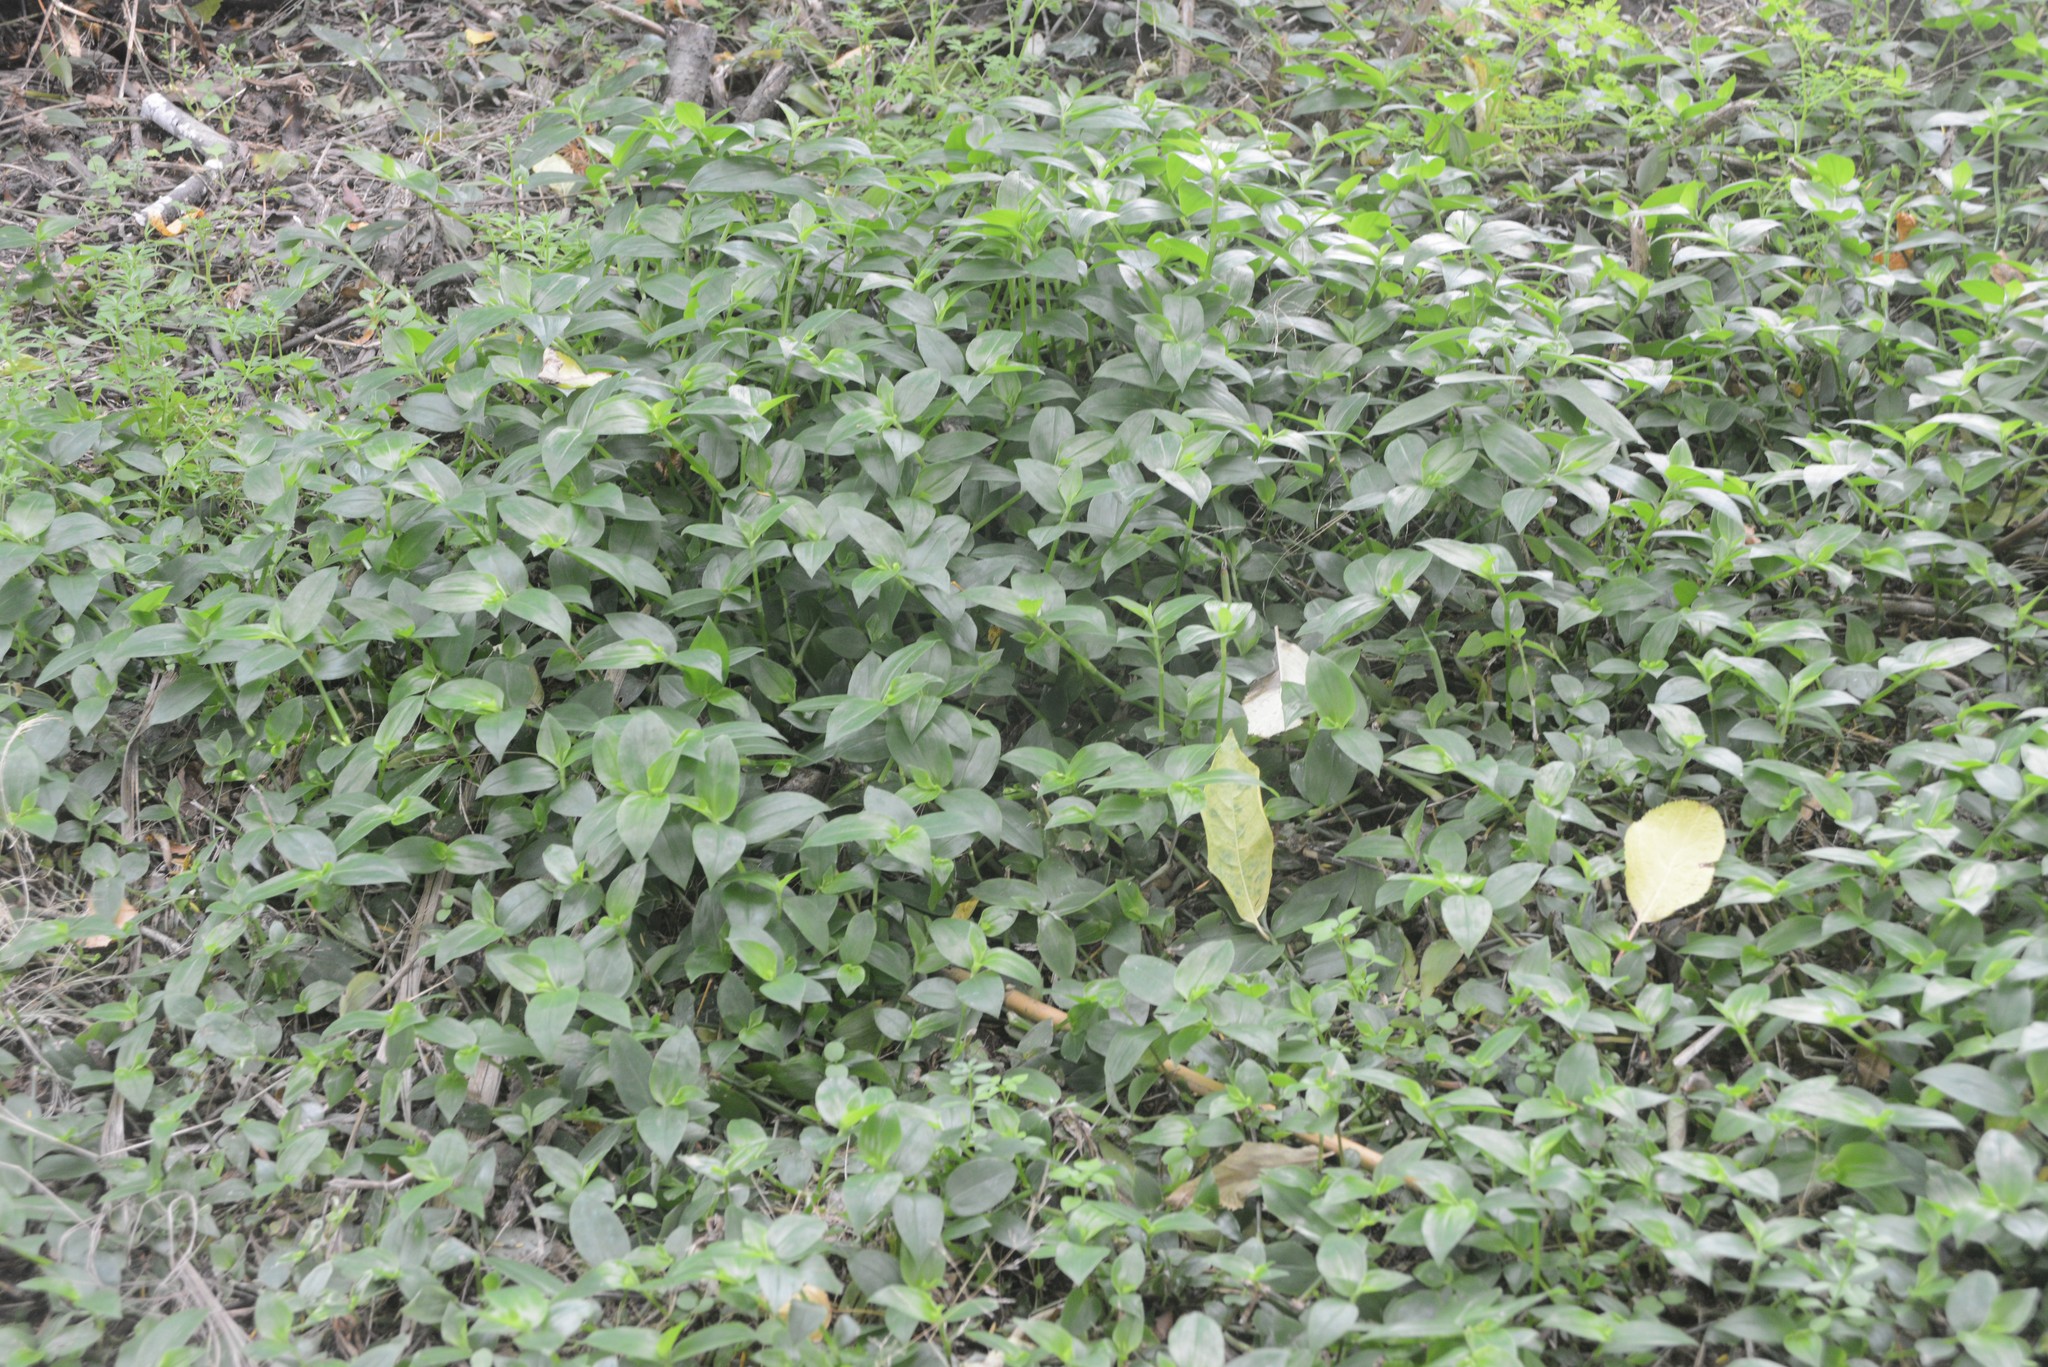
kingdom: Plantae
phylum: Tracheophyta
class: Liliopsida
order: Commelinales
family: Commelinaceae
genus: Tradescantia
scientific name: Tradescantia fluminensis
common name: Wandering-jew
